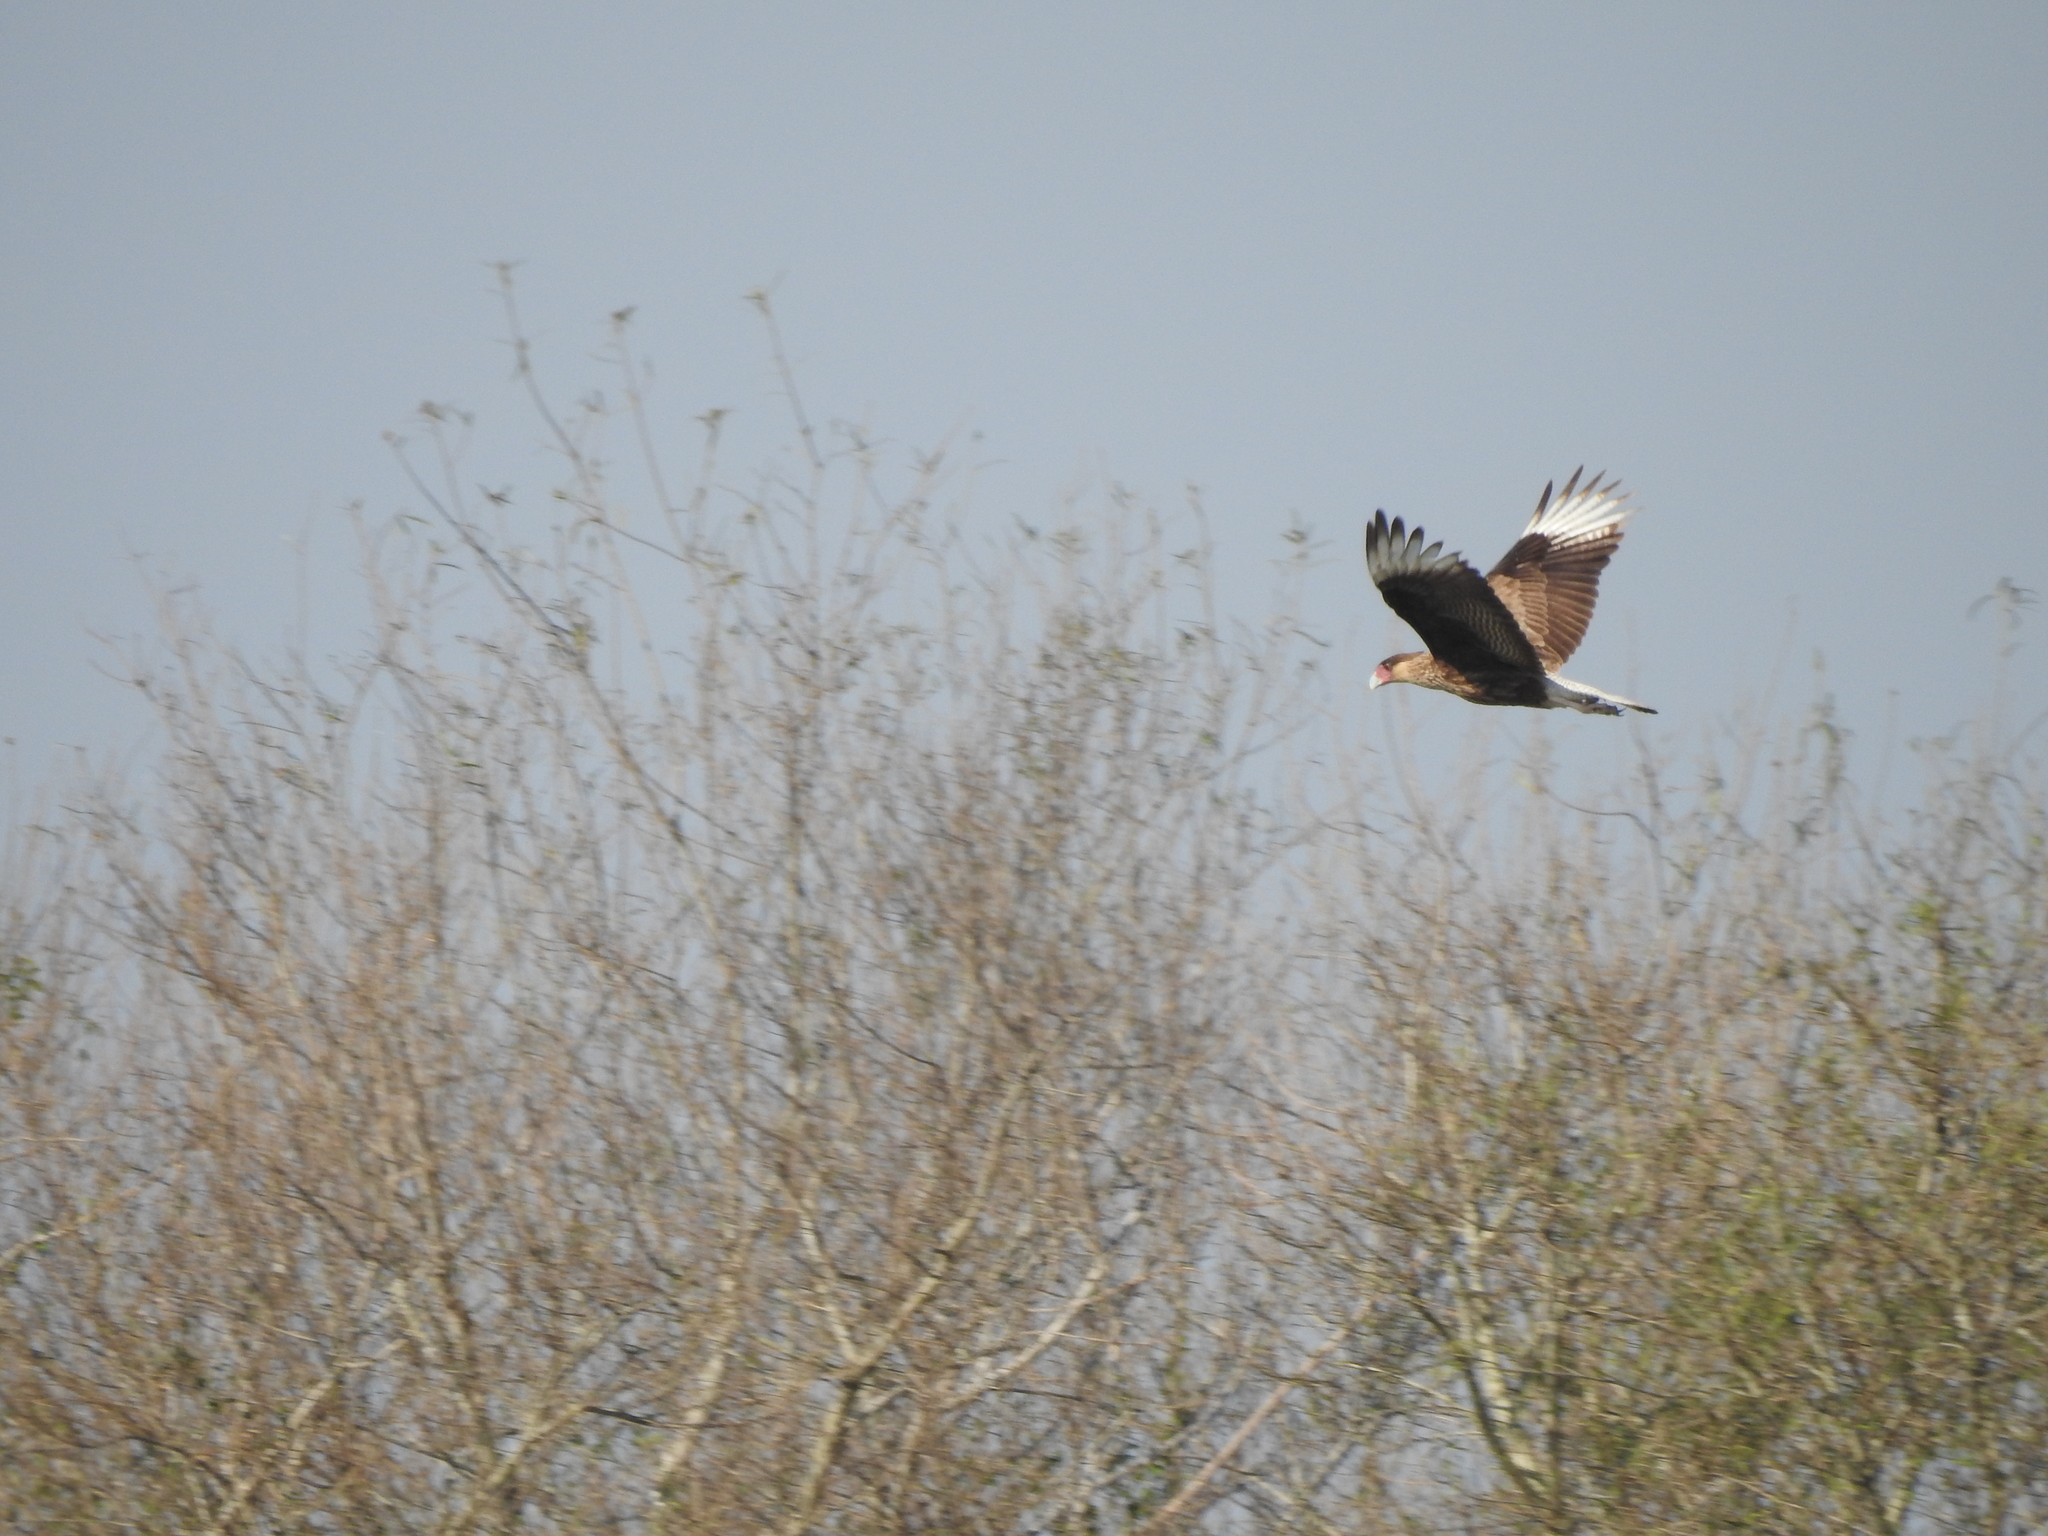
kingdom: Animalia
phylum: Chordata
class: Aves
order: Falconiformes
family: Falconidae
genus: Caracara
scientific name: Caracara plancus
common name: Southern caracara
